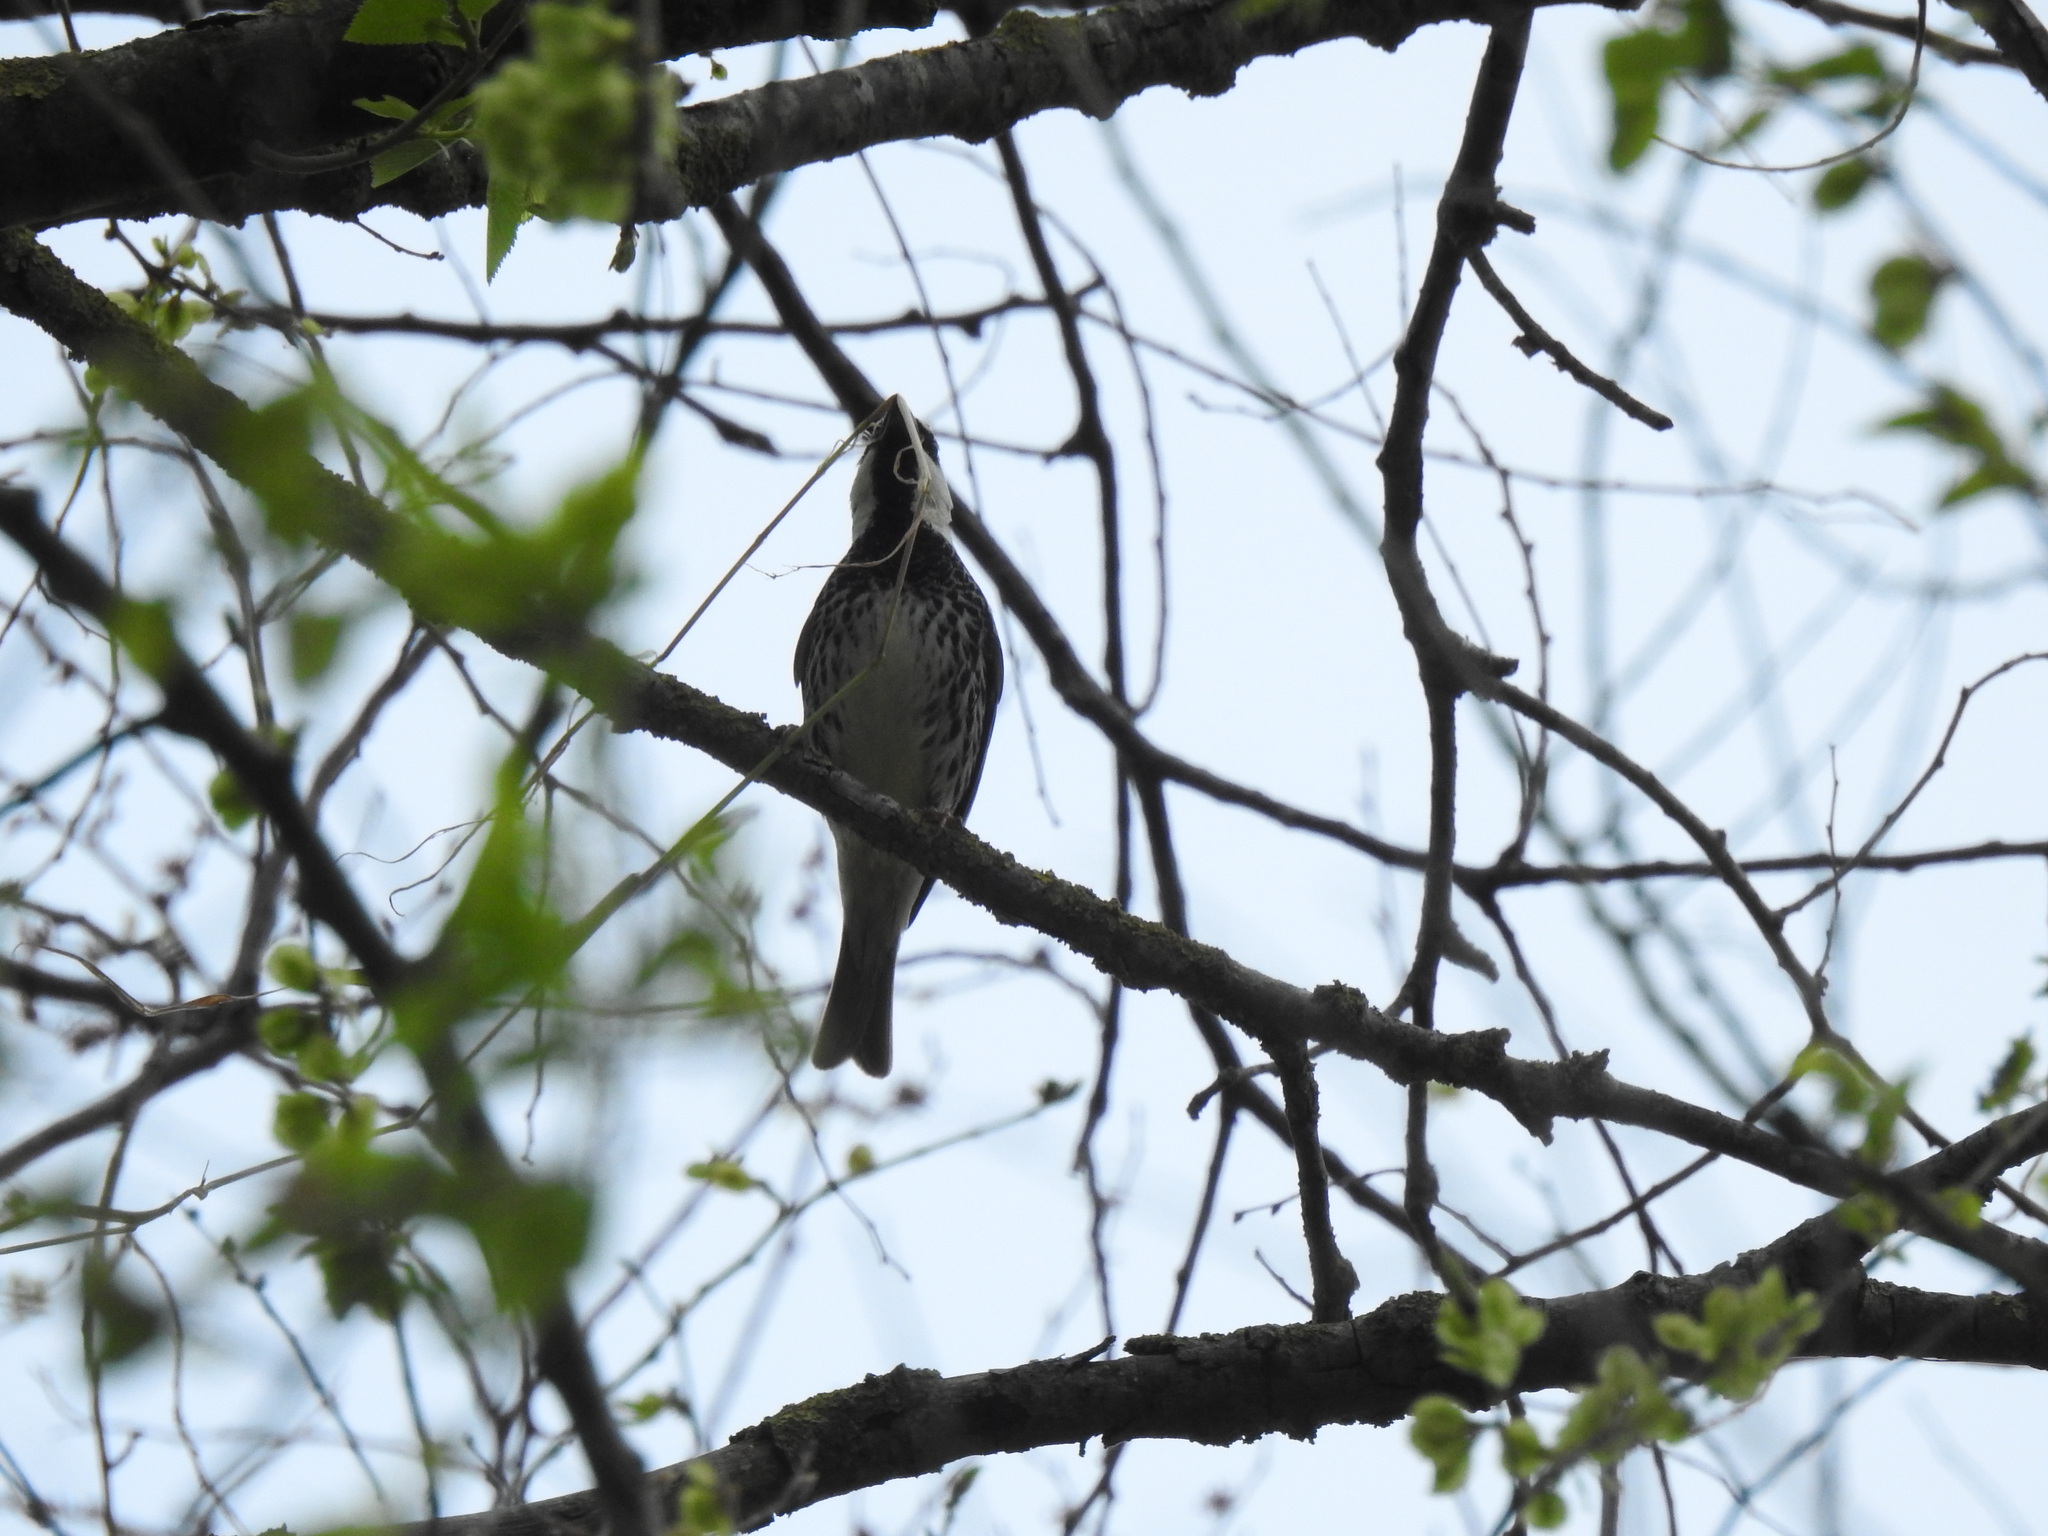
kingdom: Animalia
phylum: Chordata
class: Aves
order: Passeriformes
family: Passeridae
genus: Passer
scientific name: Passer hispaniolensis
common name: Spanish sparrow
